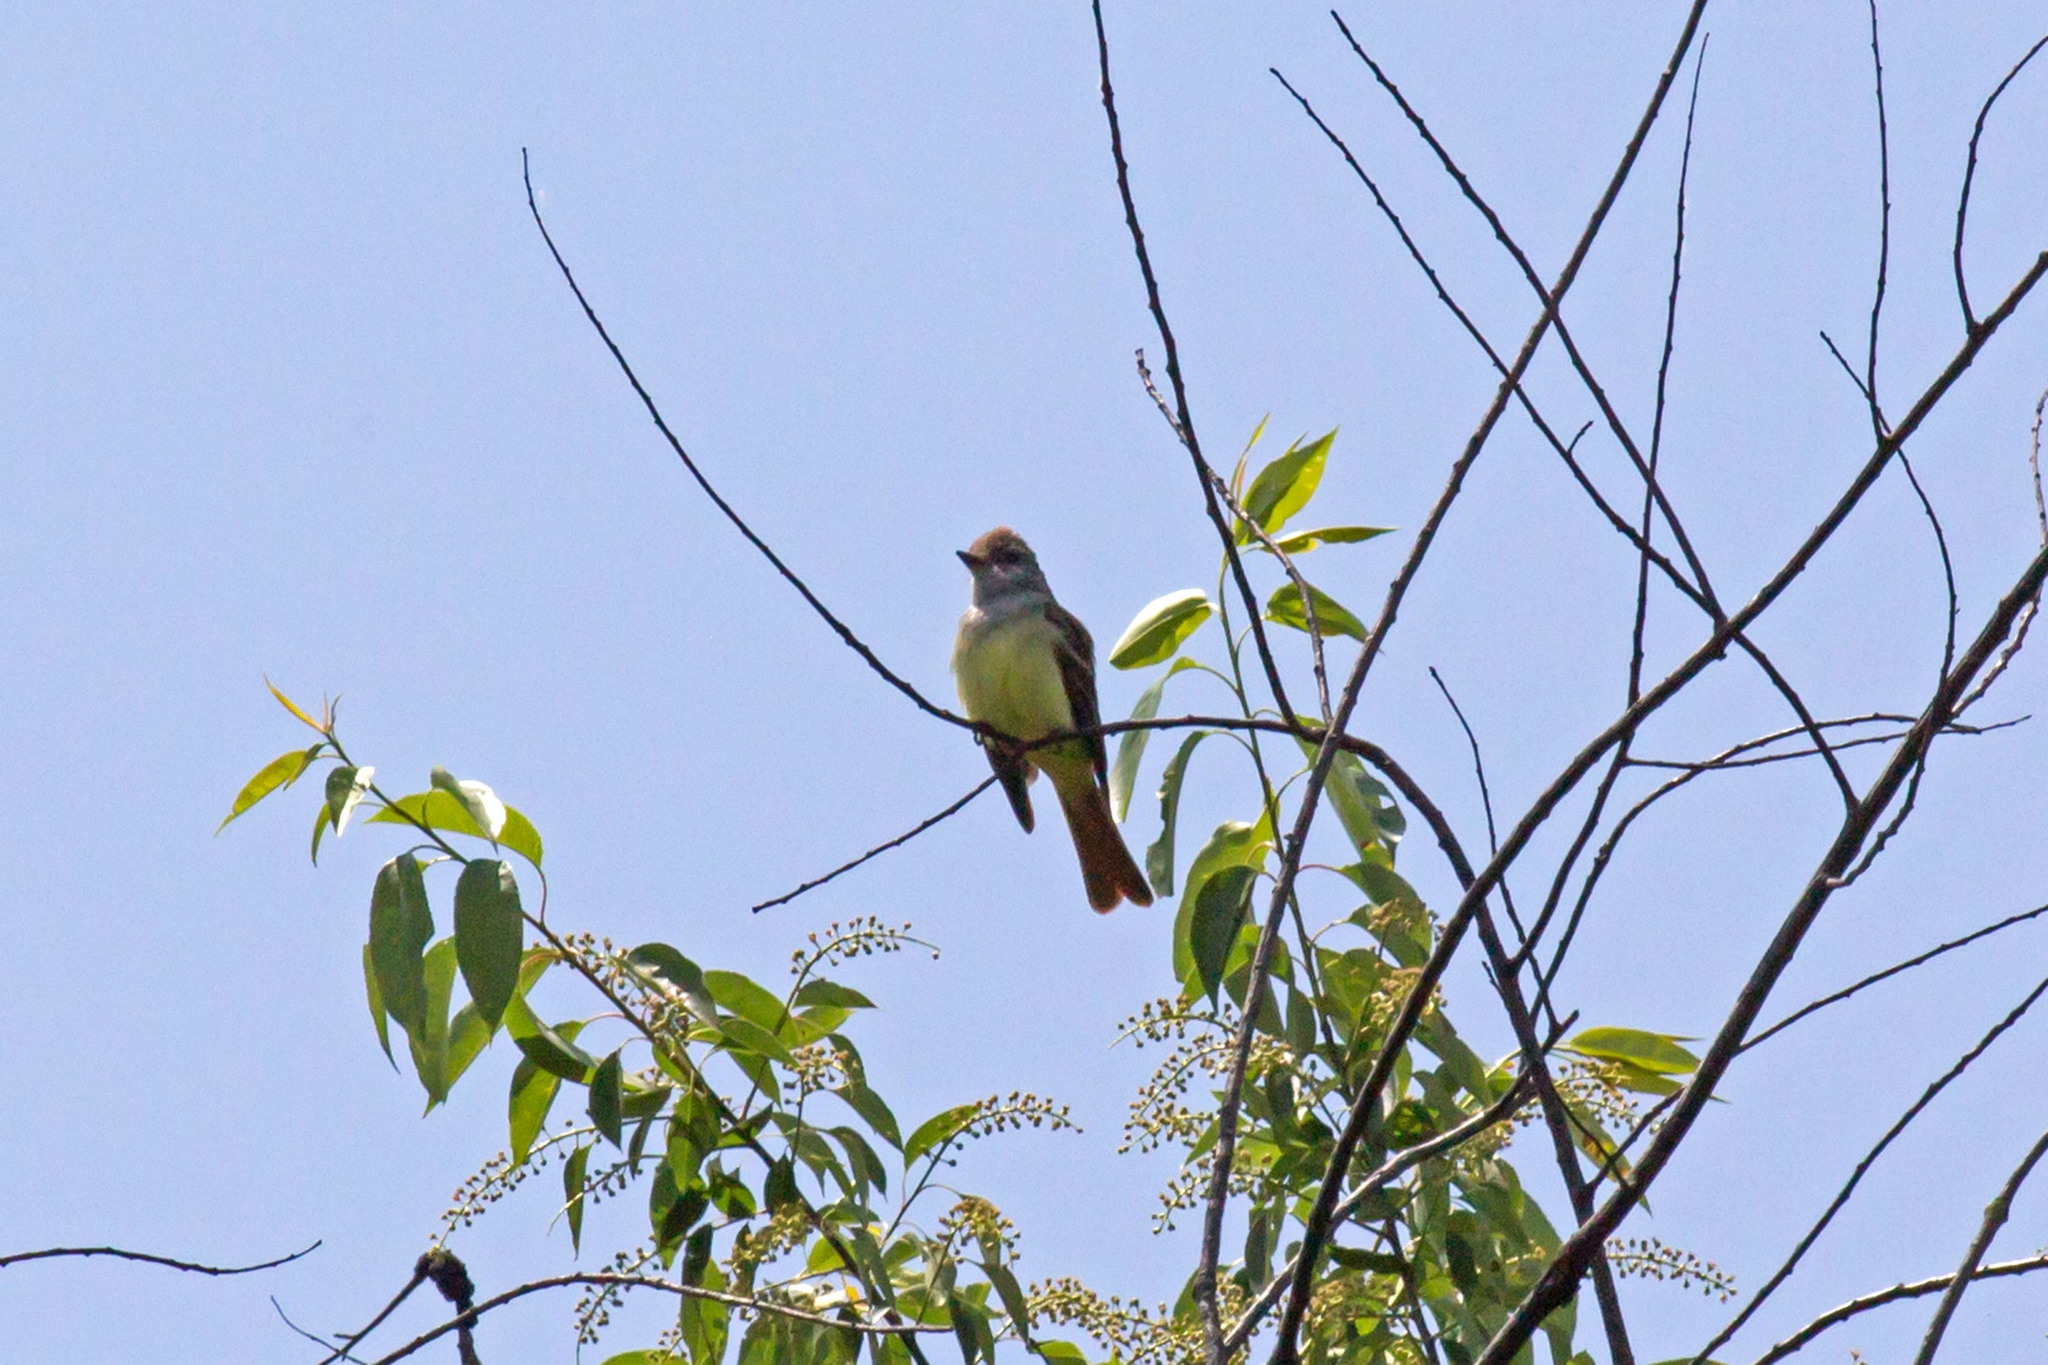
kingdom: Animalia
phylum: Chordata
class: Aves
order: Passeriformes
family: Tyrannidae
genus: Myiarchus
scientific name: Myiarchus crinitus
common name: Great crested flycatcher
